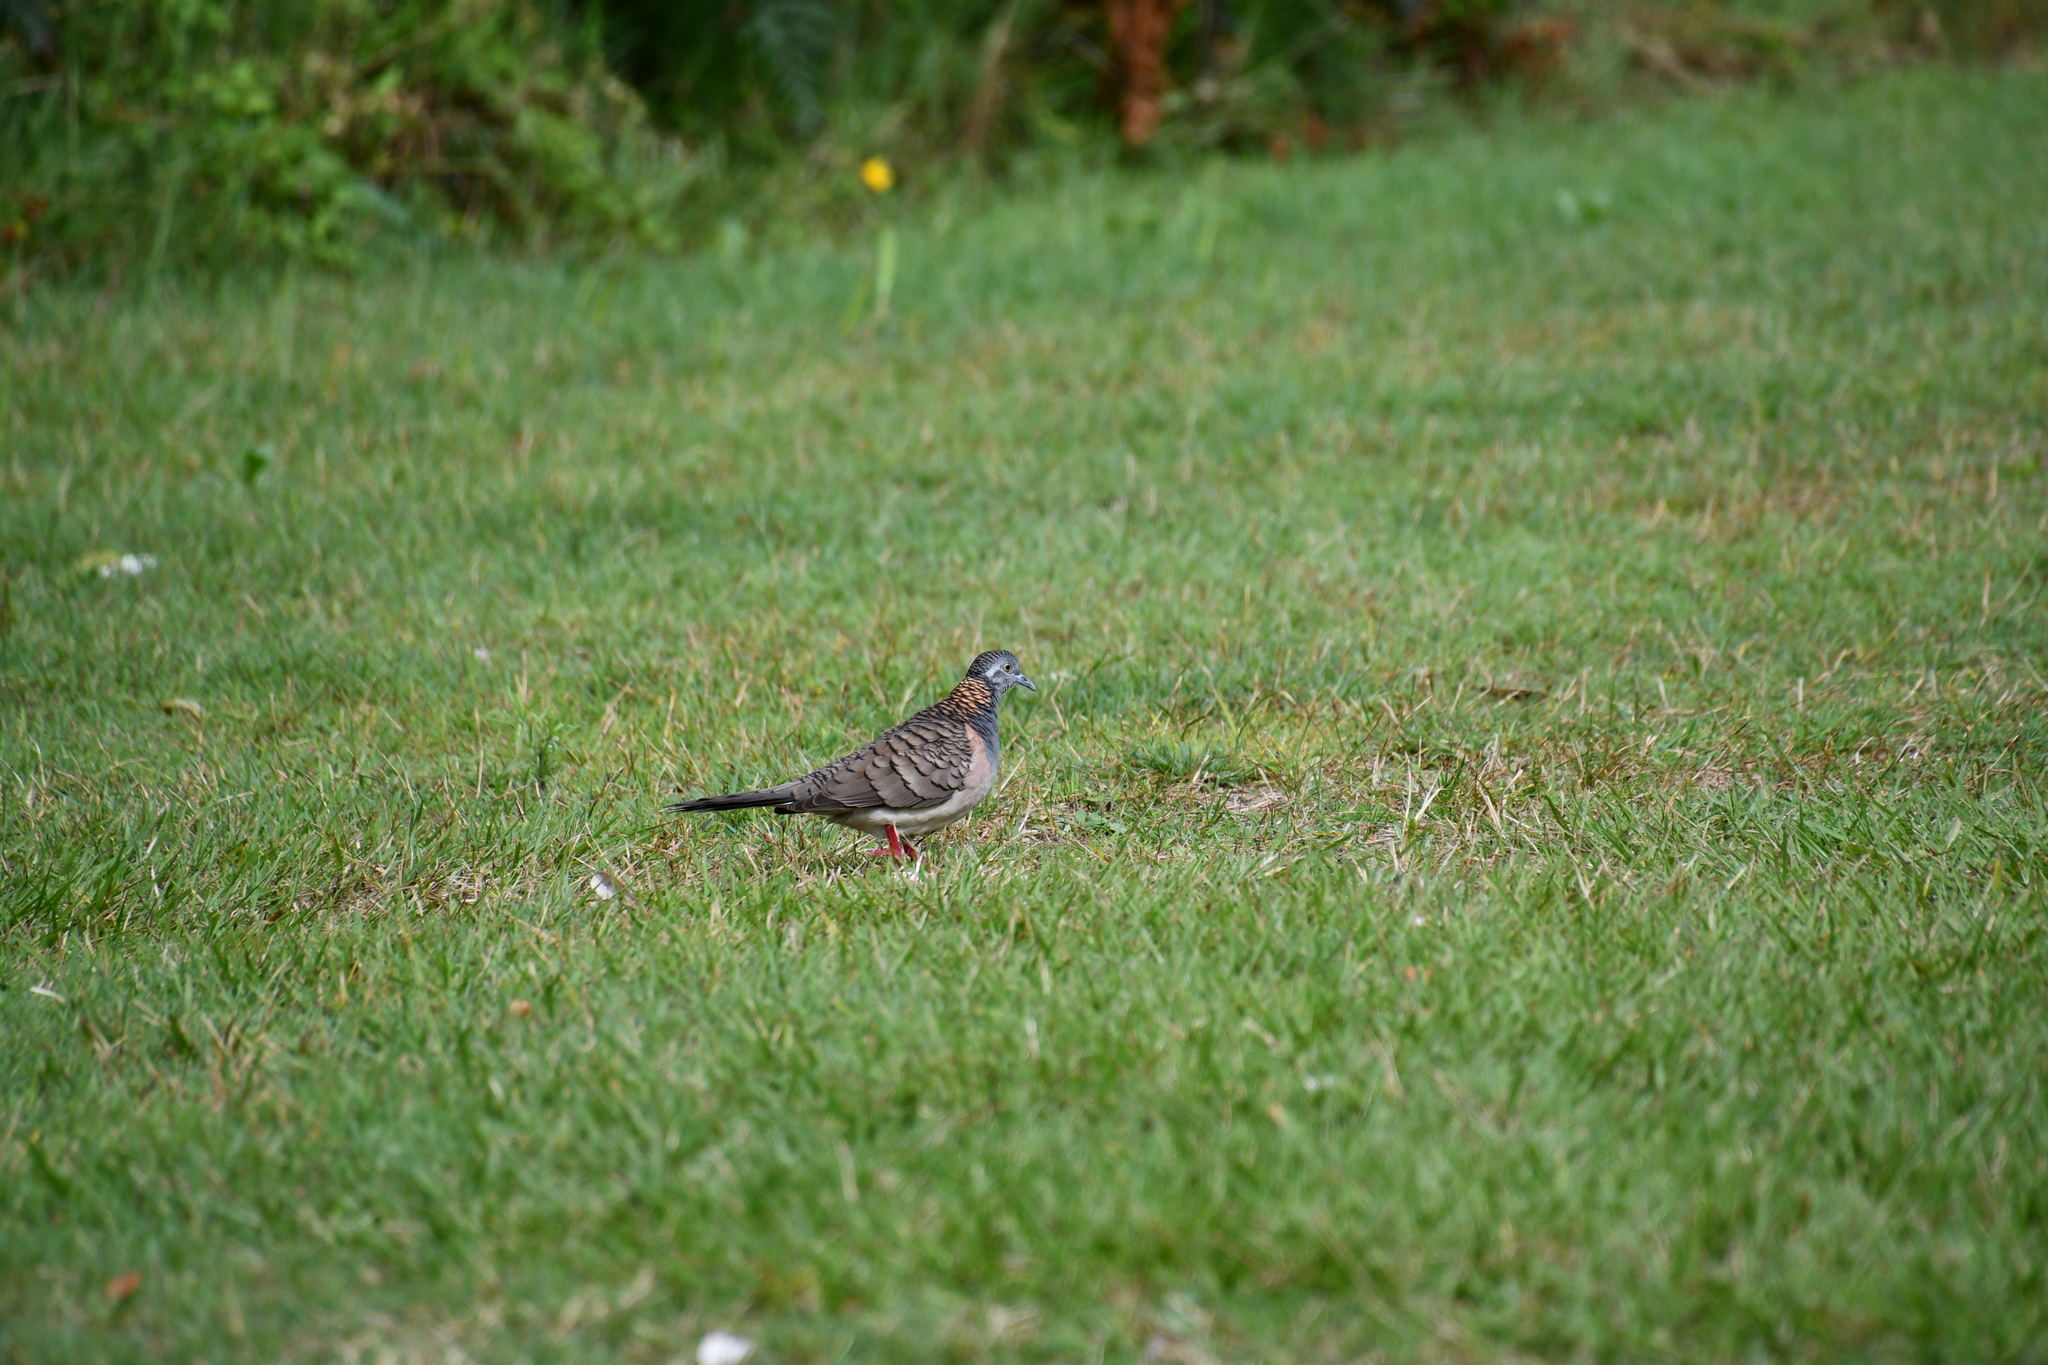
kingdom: Animalia
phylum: Chordata
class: Aves
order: Columbiformes
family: Columbidae
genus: Geopelia
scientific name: Geopelia humeralis
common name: Bar-shouldered dove
